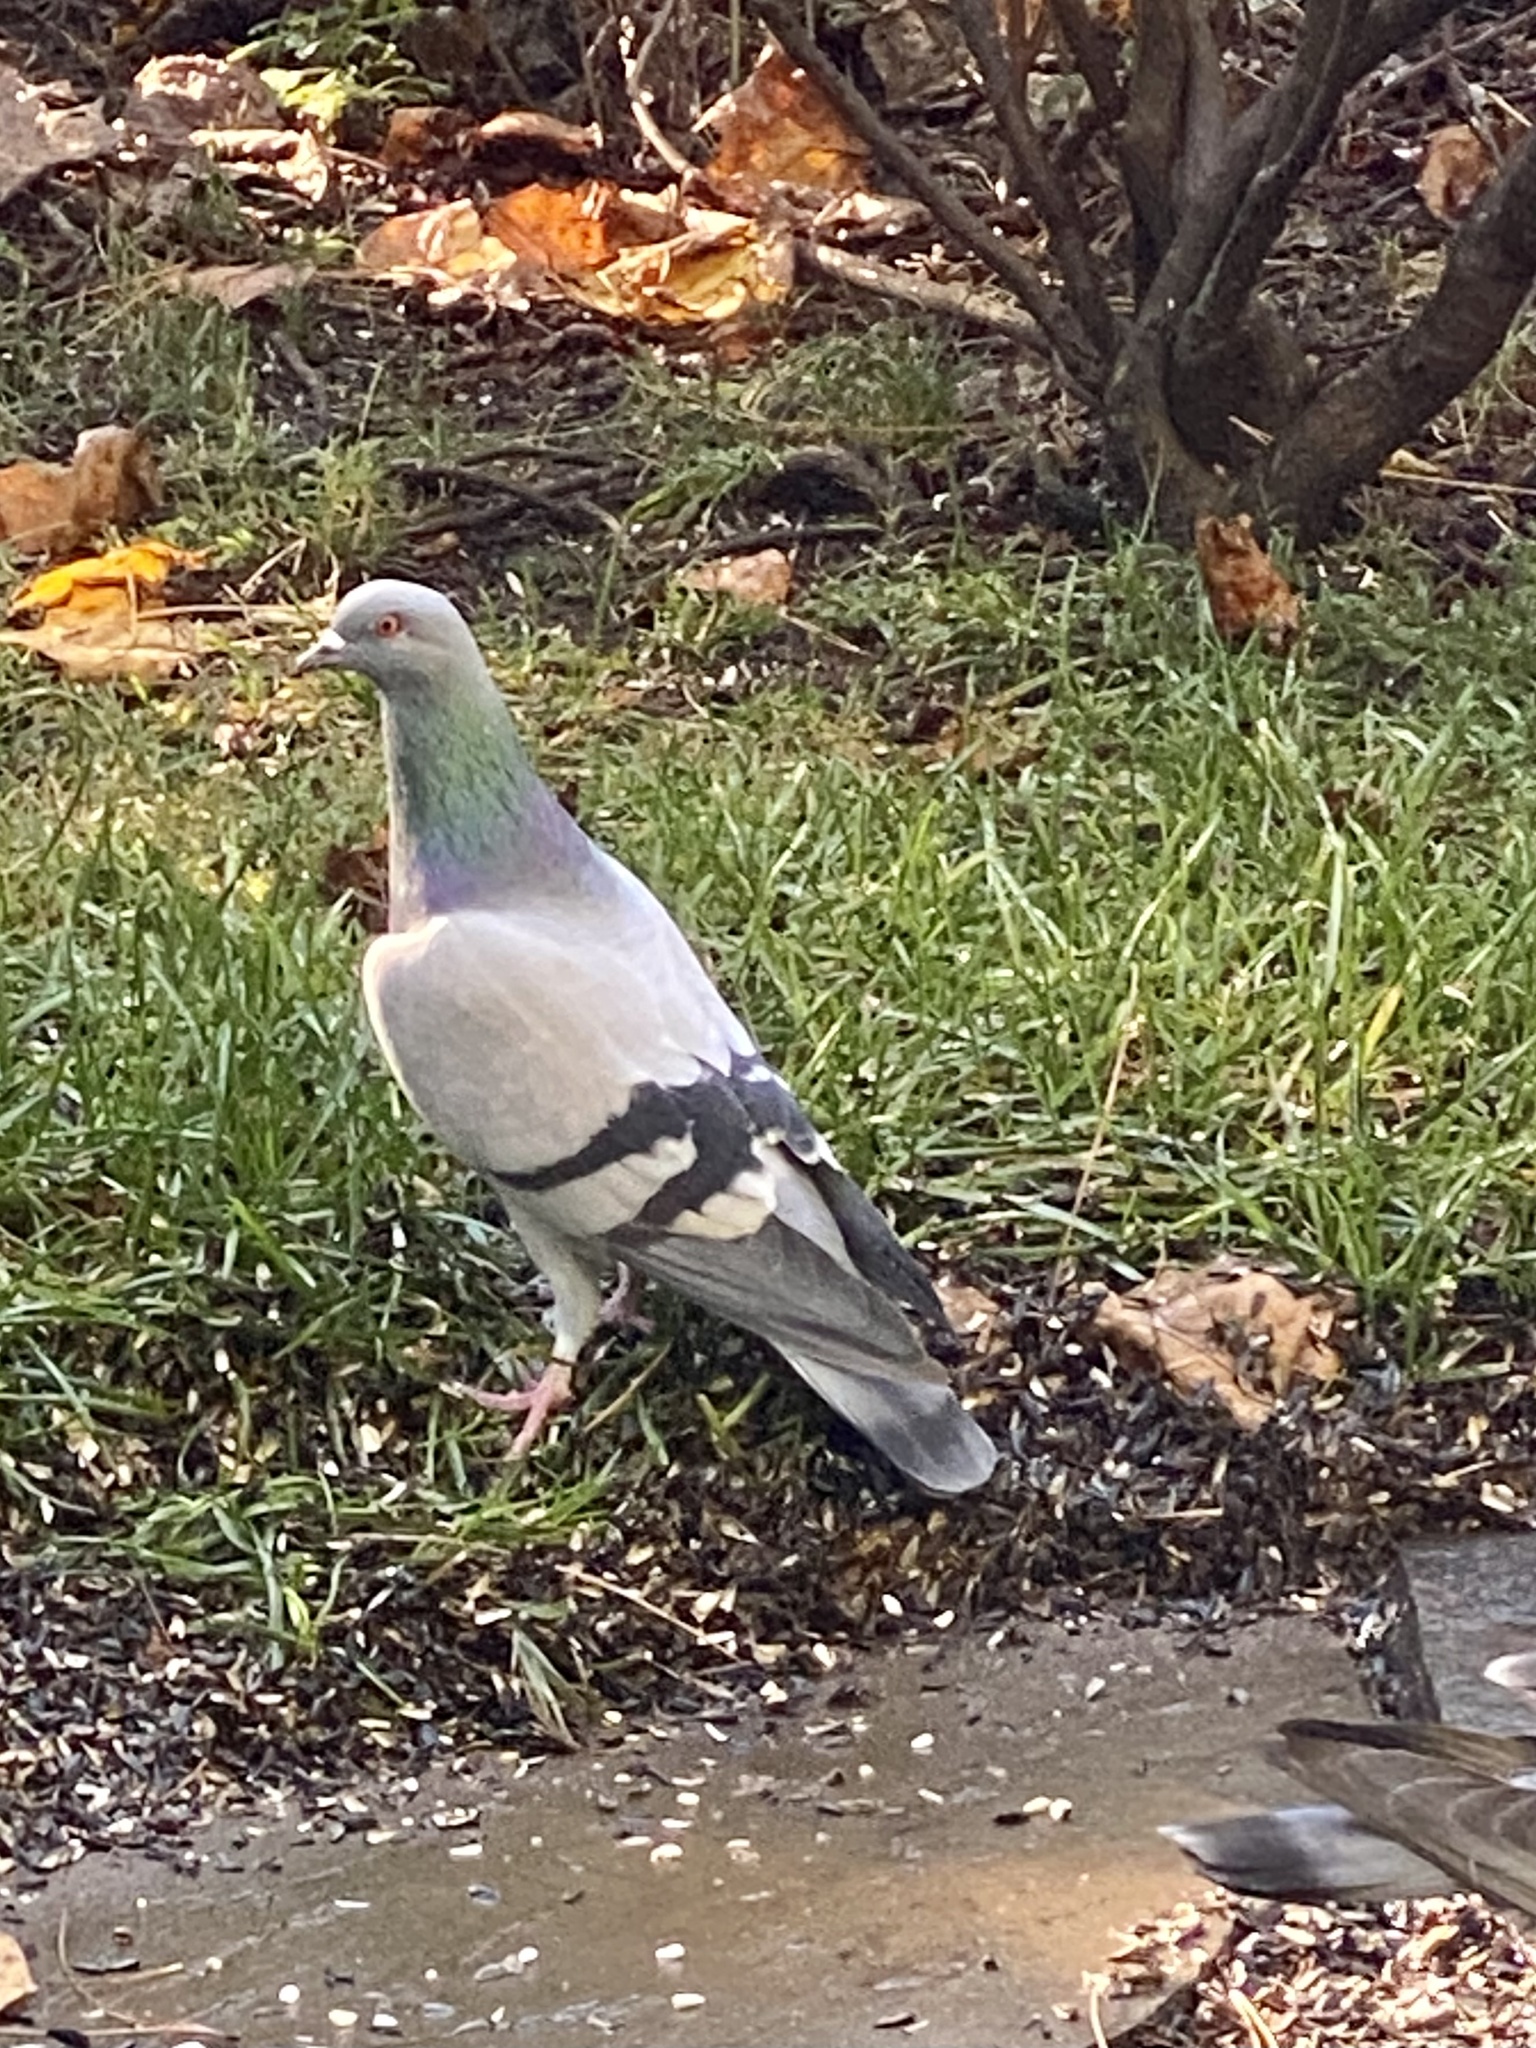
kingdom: Animalia
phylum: Chordata
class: Aves
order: Columbiformes
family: Columbidae
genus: Columba
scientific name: Columba livia
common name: Rock pigeon
